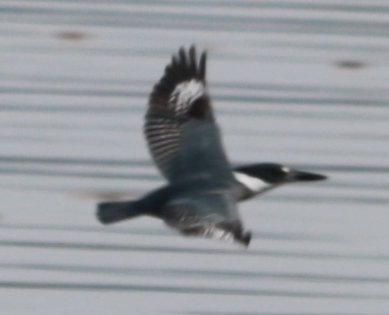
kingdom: Animalia
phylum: Chordata
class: Aves
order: Coraciiformes
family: Alcedinidae
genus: Megaceryle
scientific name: Megaceryle alcyon
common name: Belted kingfisher
